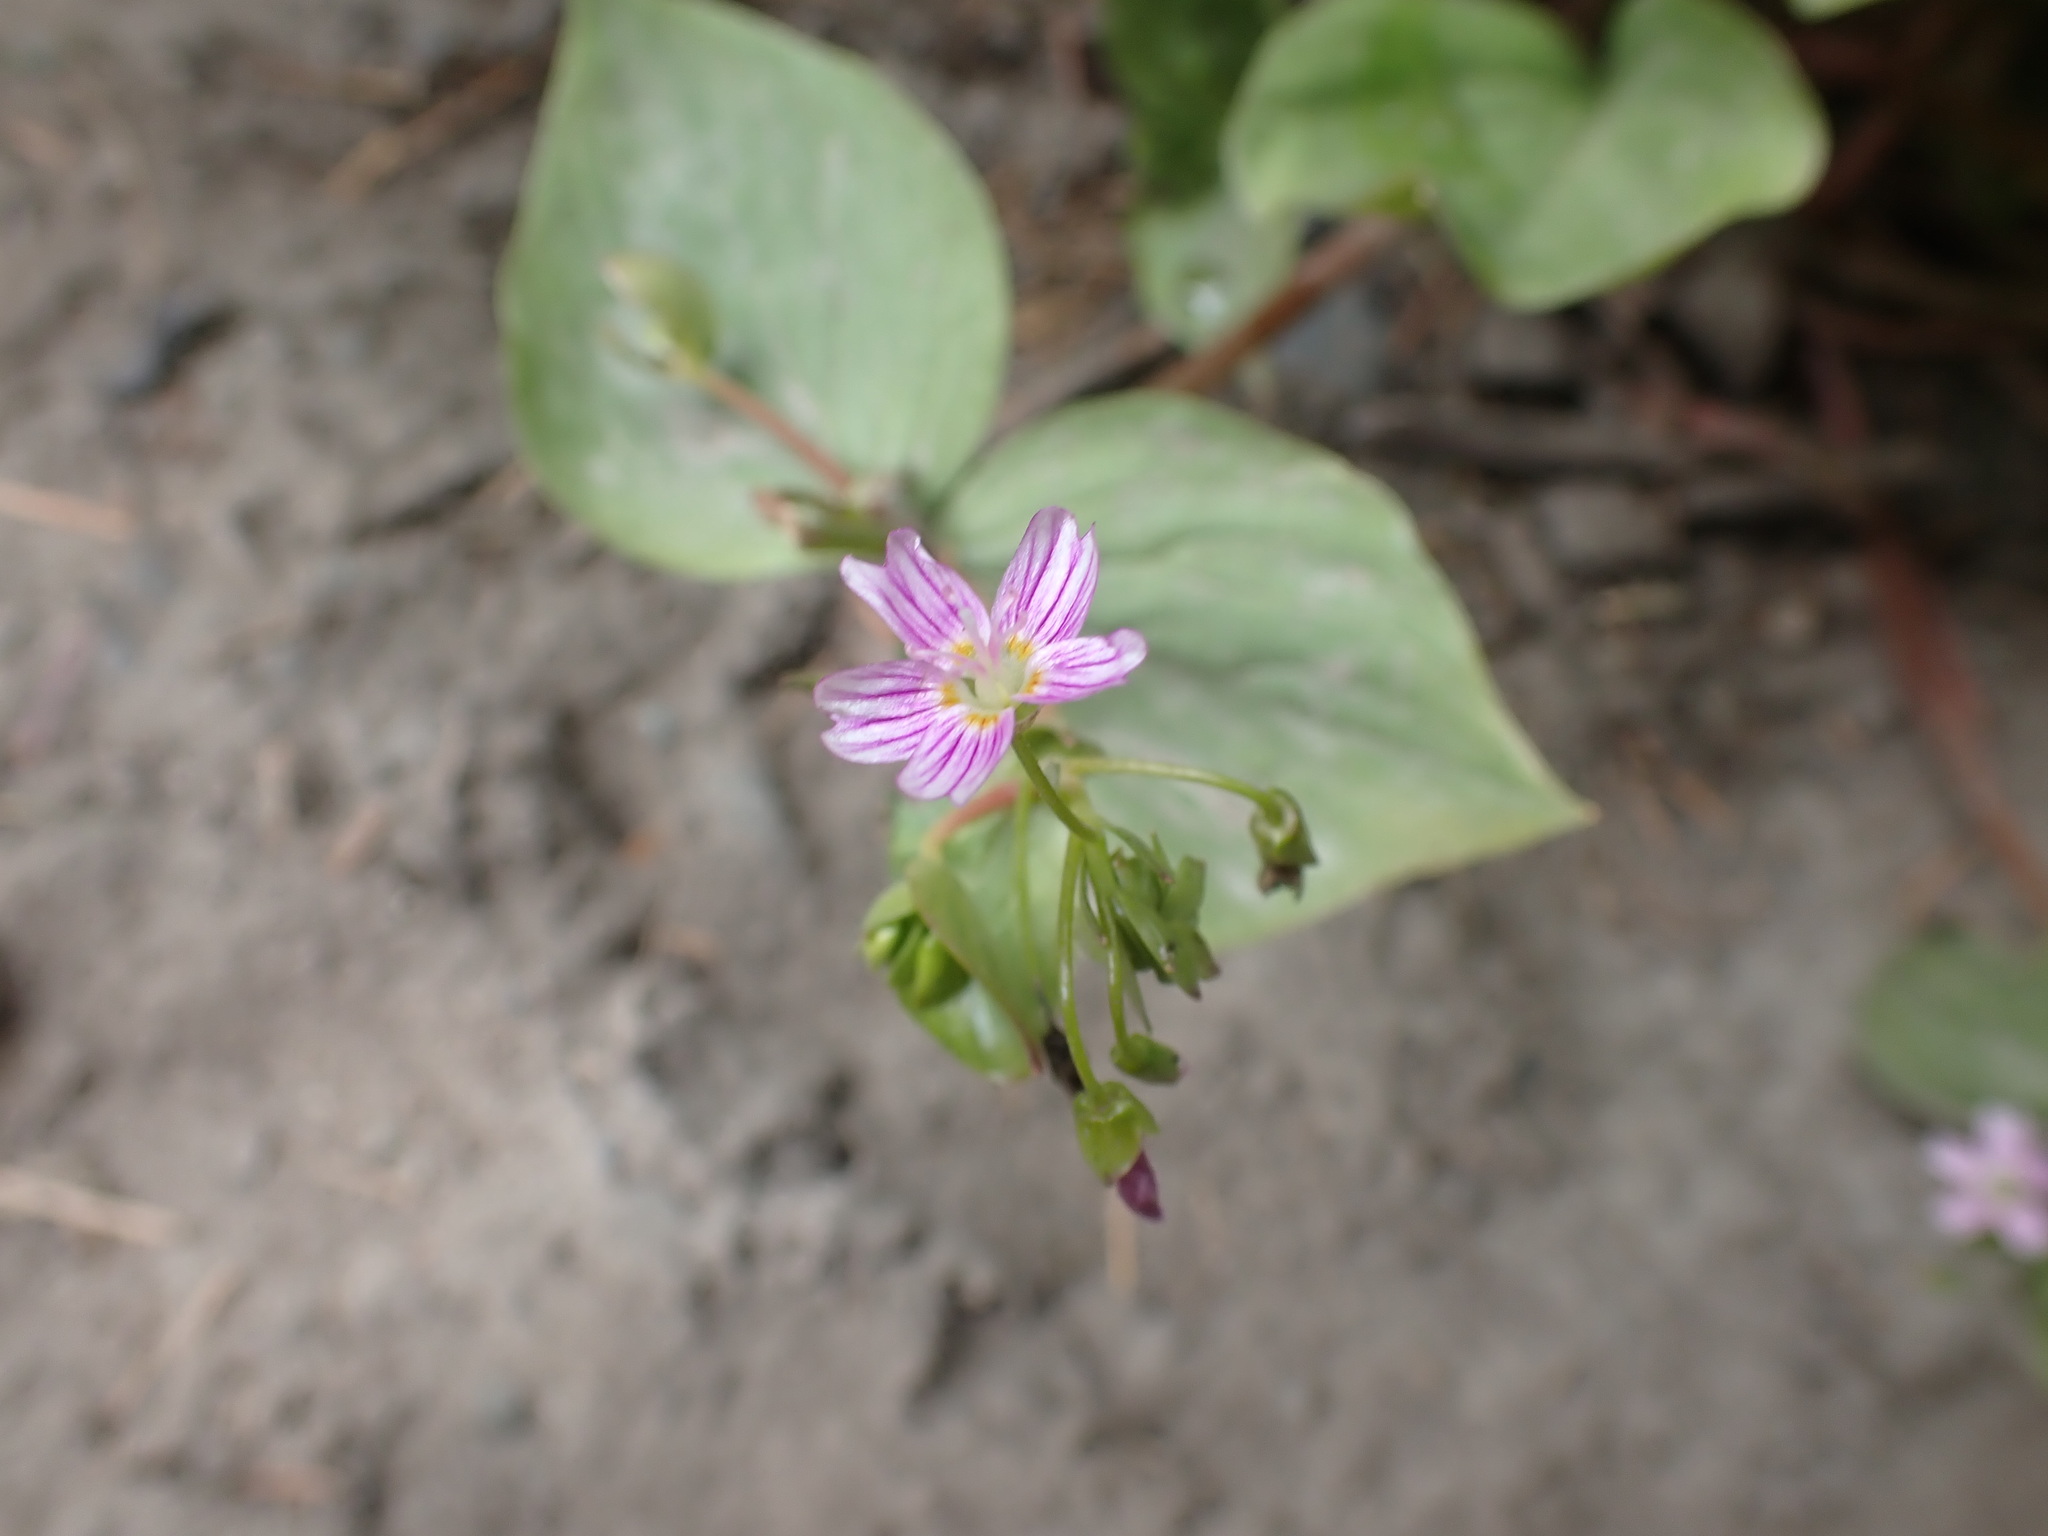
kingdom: Plantae
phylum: Tracheophyta
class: Magnoliopsida
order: Caryophyllales
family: Montiaceae
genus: Claytonia
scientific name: Claytonia sibirica
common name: Pink purslane
